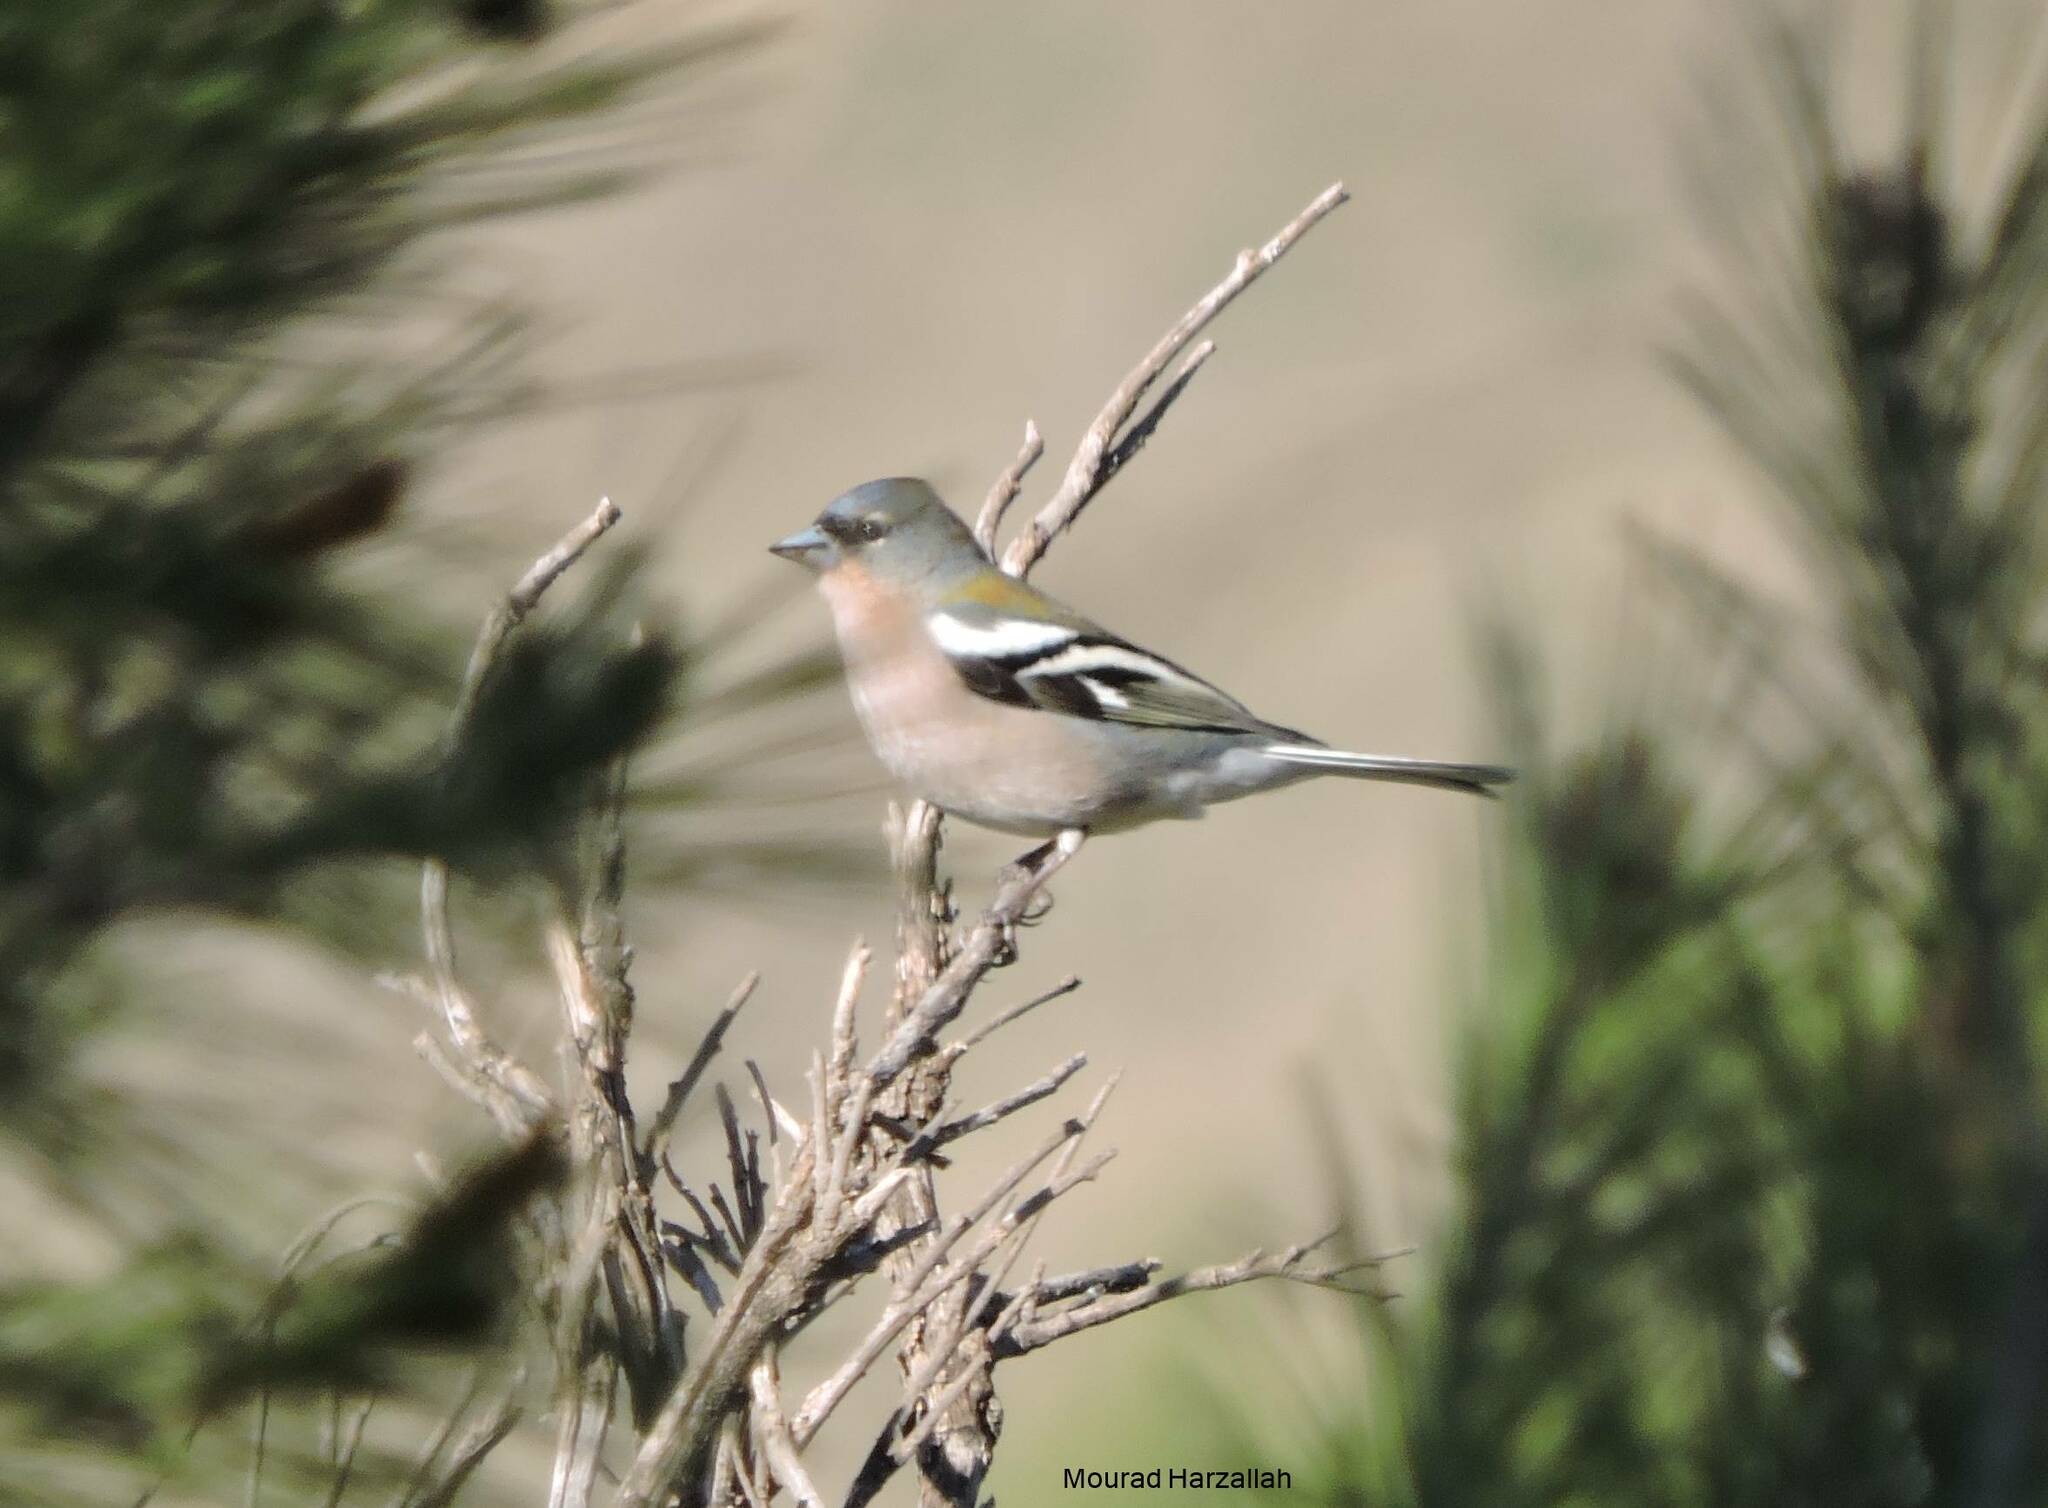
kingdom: Animalia
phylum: Chordata
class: Aves
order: Passeriformes
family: Fringillidae
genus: Fringilla
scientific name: Fringilla spodiogenys
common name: African chaffinch
